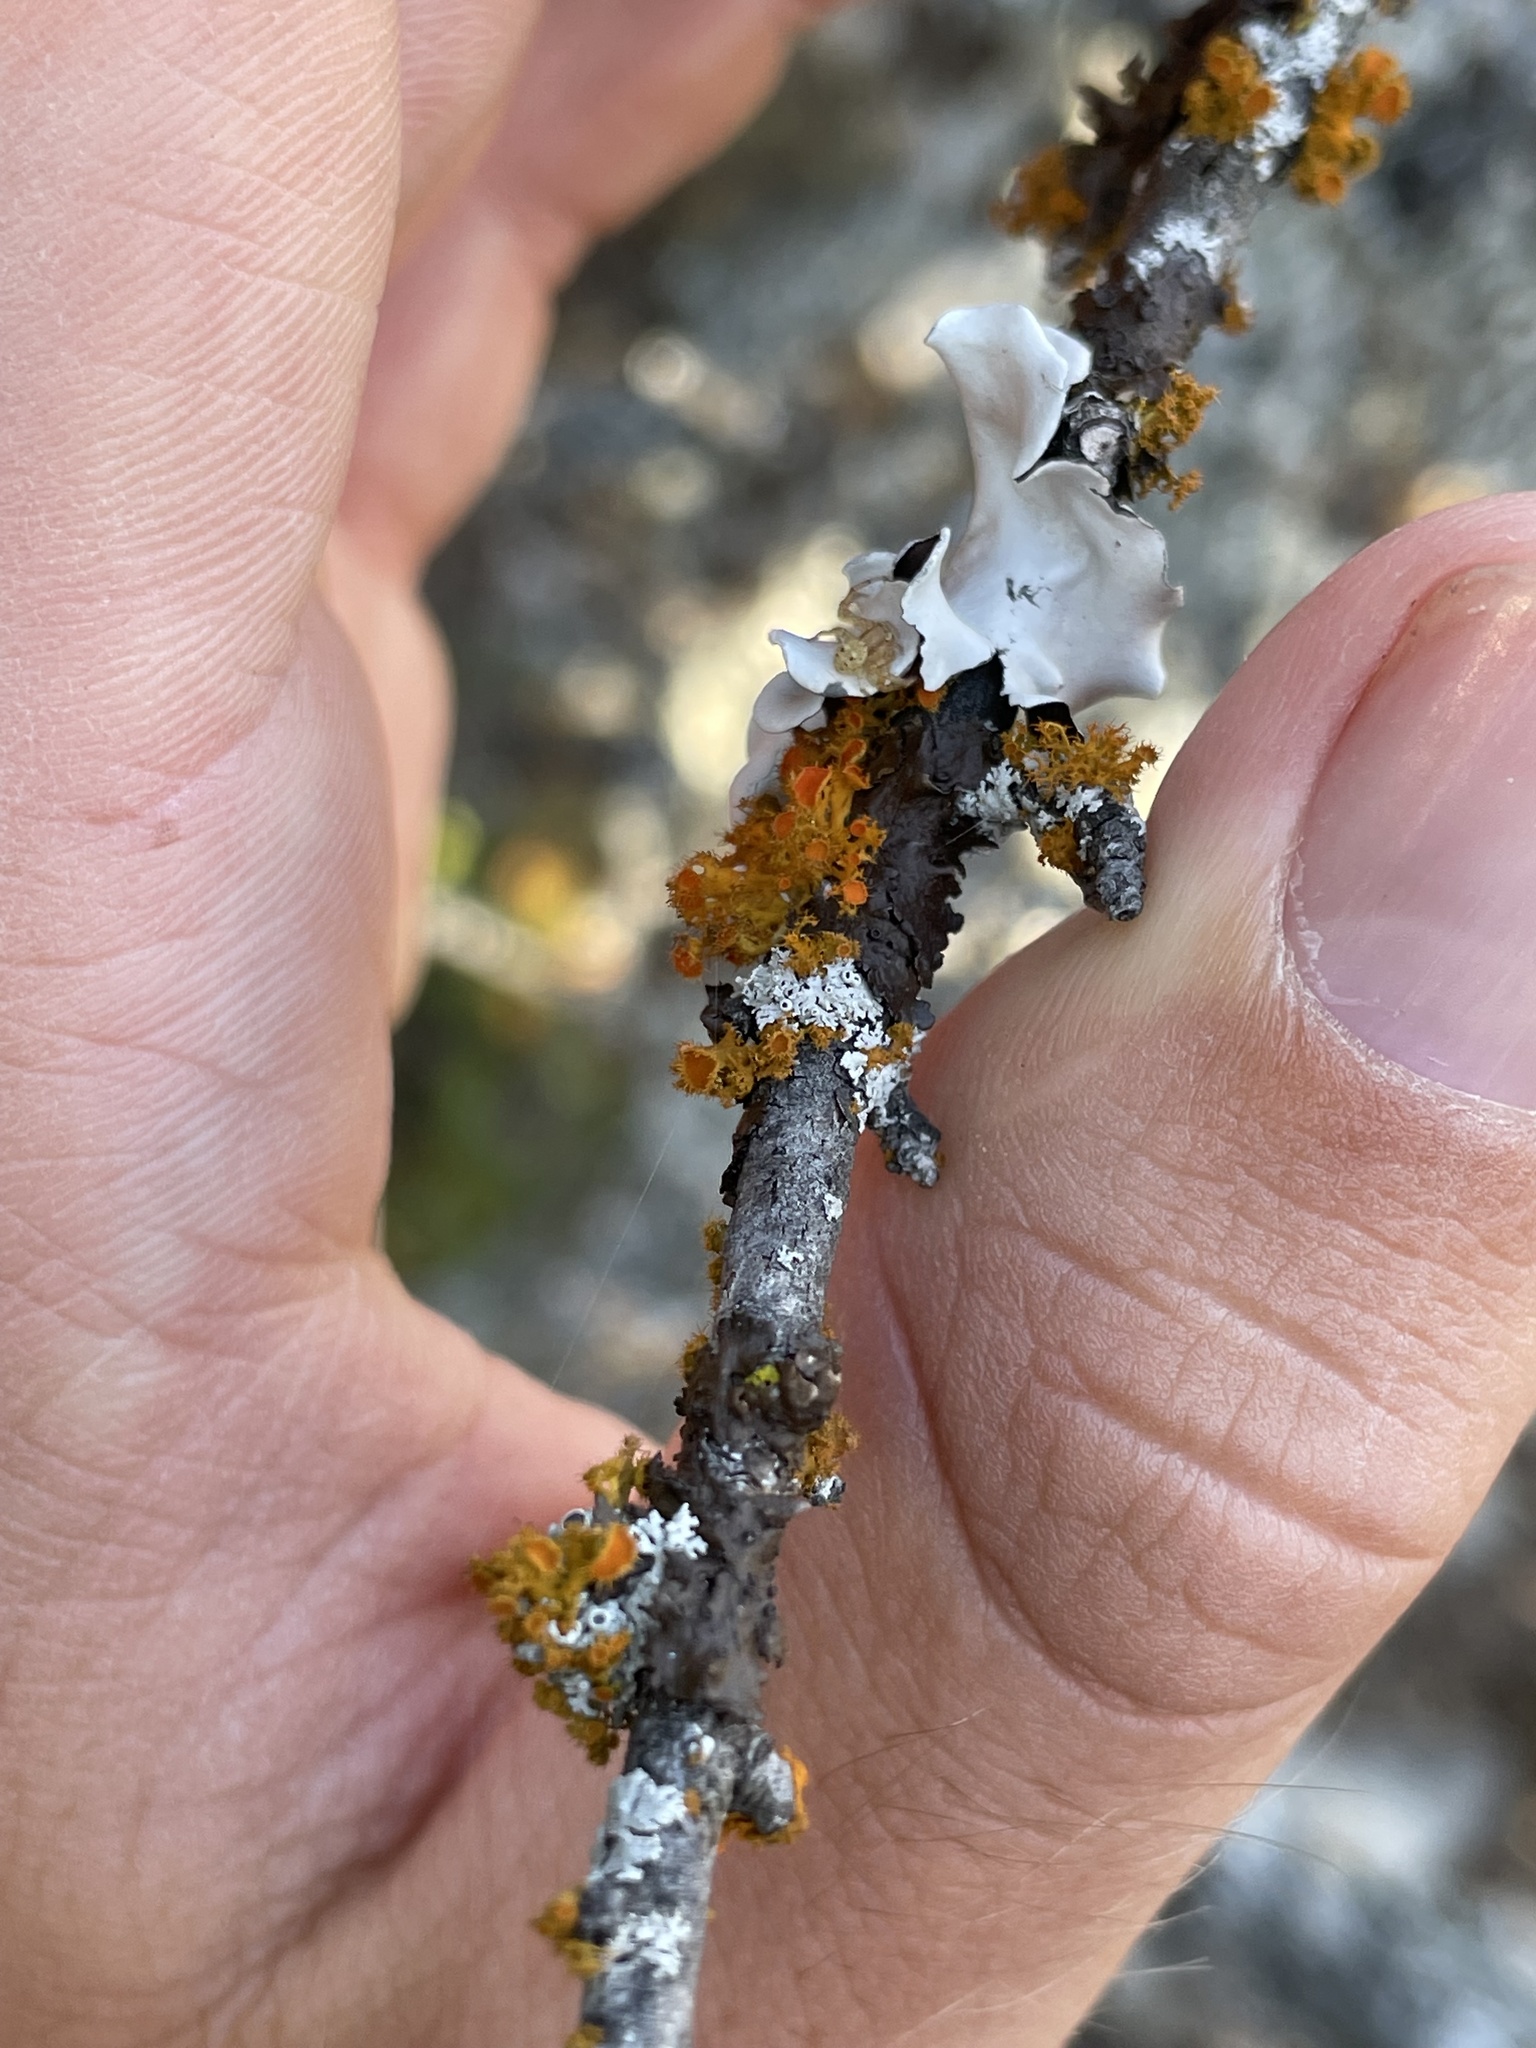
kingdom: Fungi
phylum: Ascomycota
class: Lecanoromycetes
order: Teloschistales
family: Teloschistaceae
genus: Niorma
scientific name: Niorma chrysophthalma
